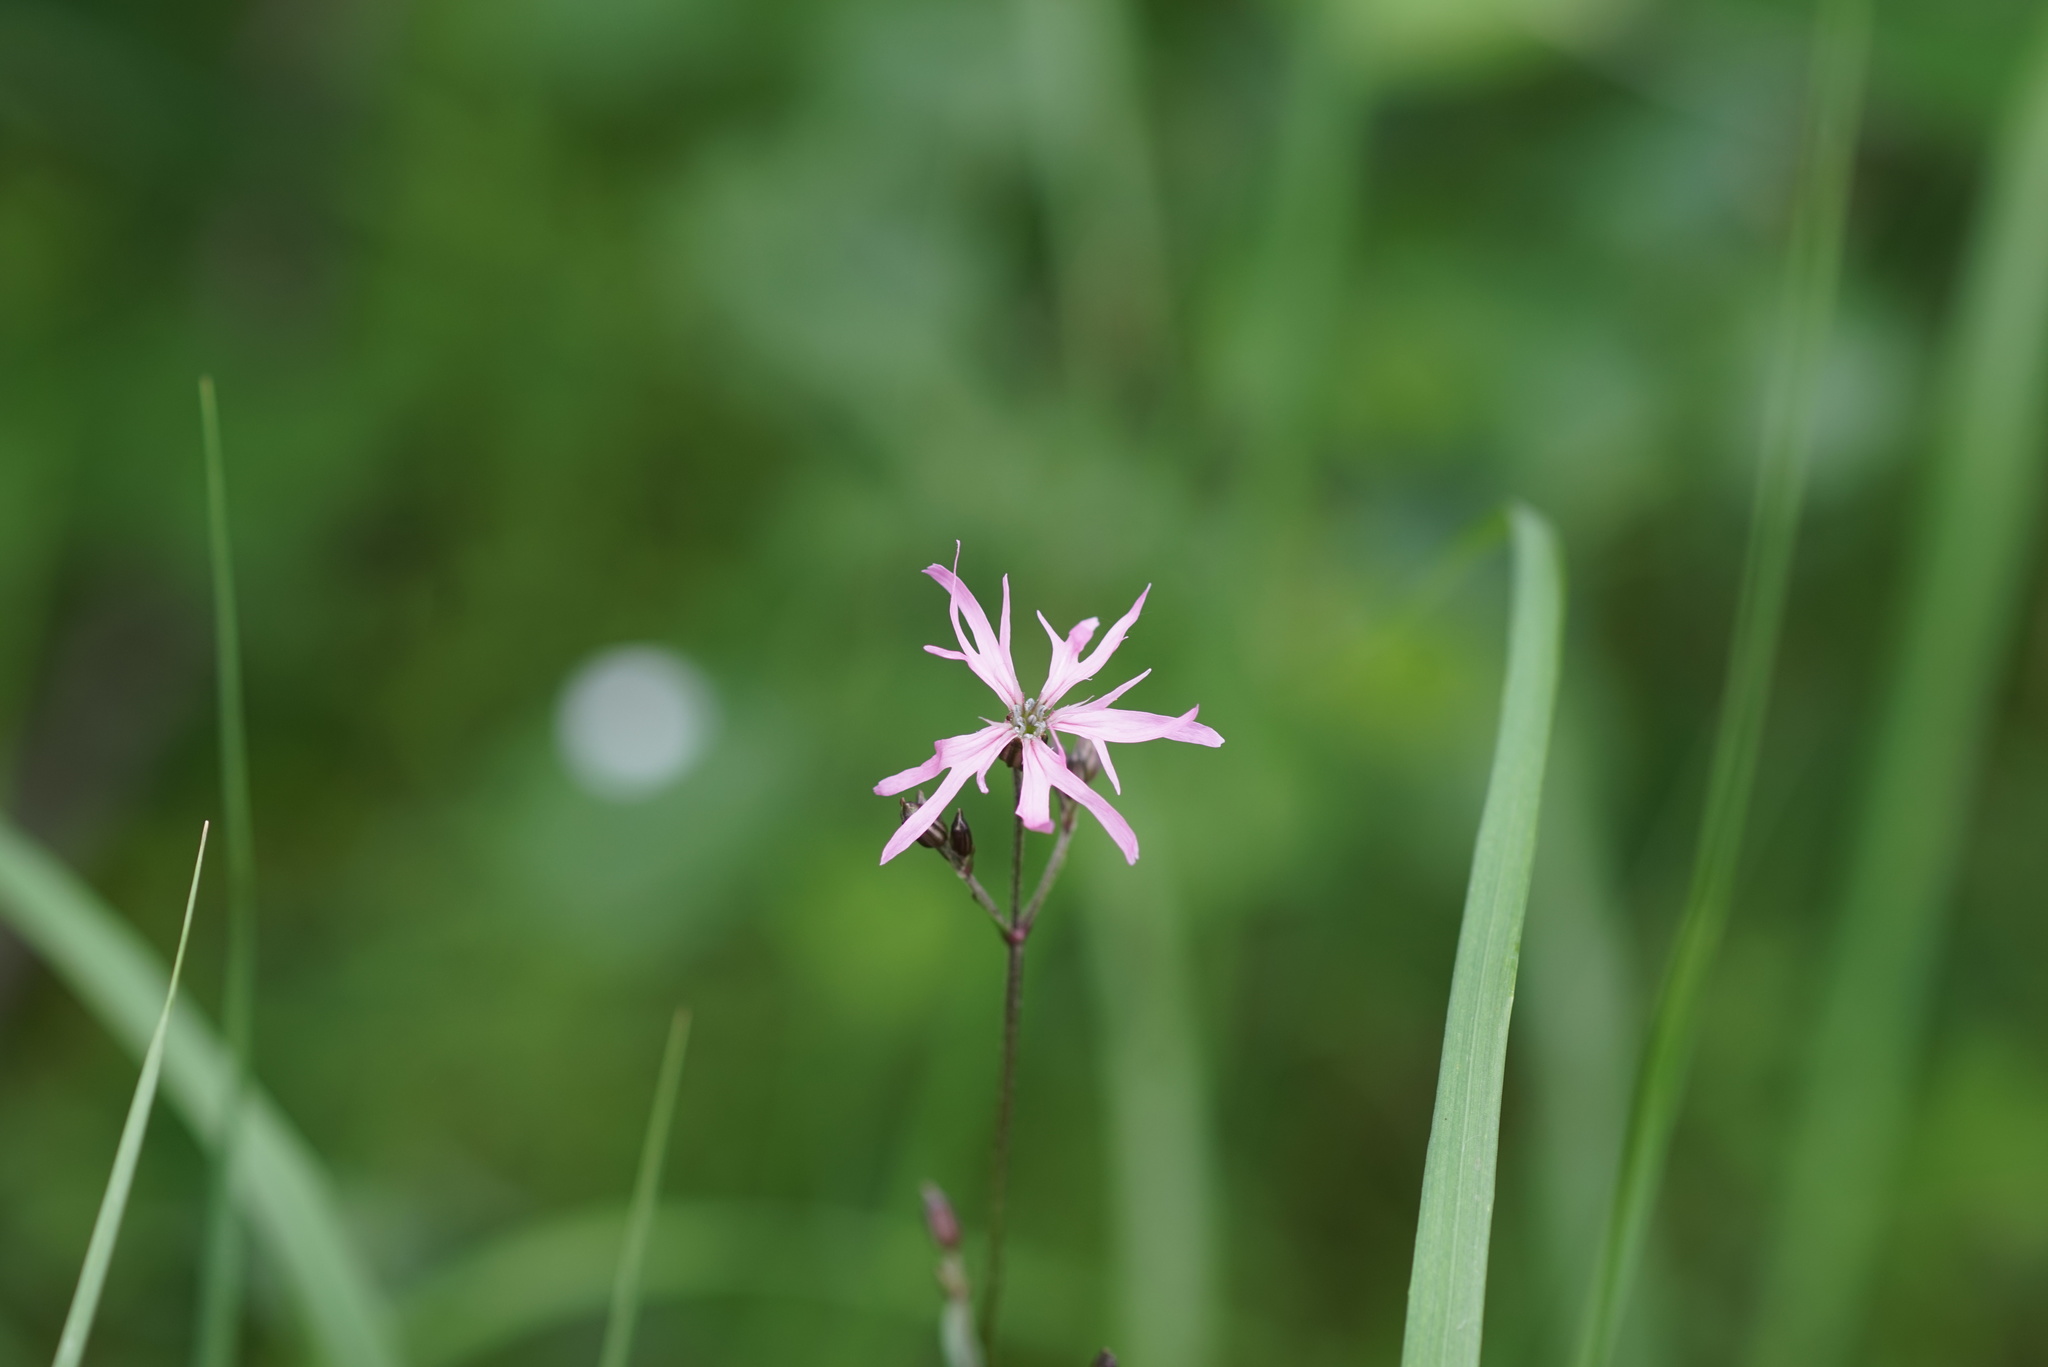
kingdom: Plantae
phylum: Tracheophyta
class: Magnoliopsida
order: Caryophyllales
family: Caryophyllaceae
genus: Silene
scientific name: Silene flos-cuculi
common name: Ragged-robin
